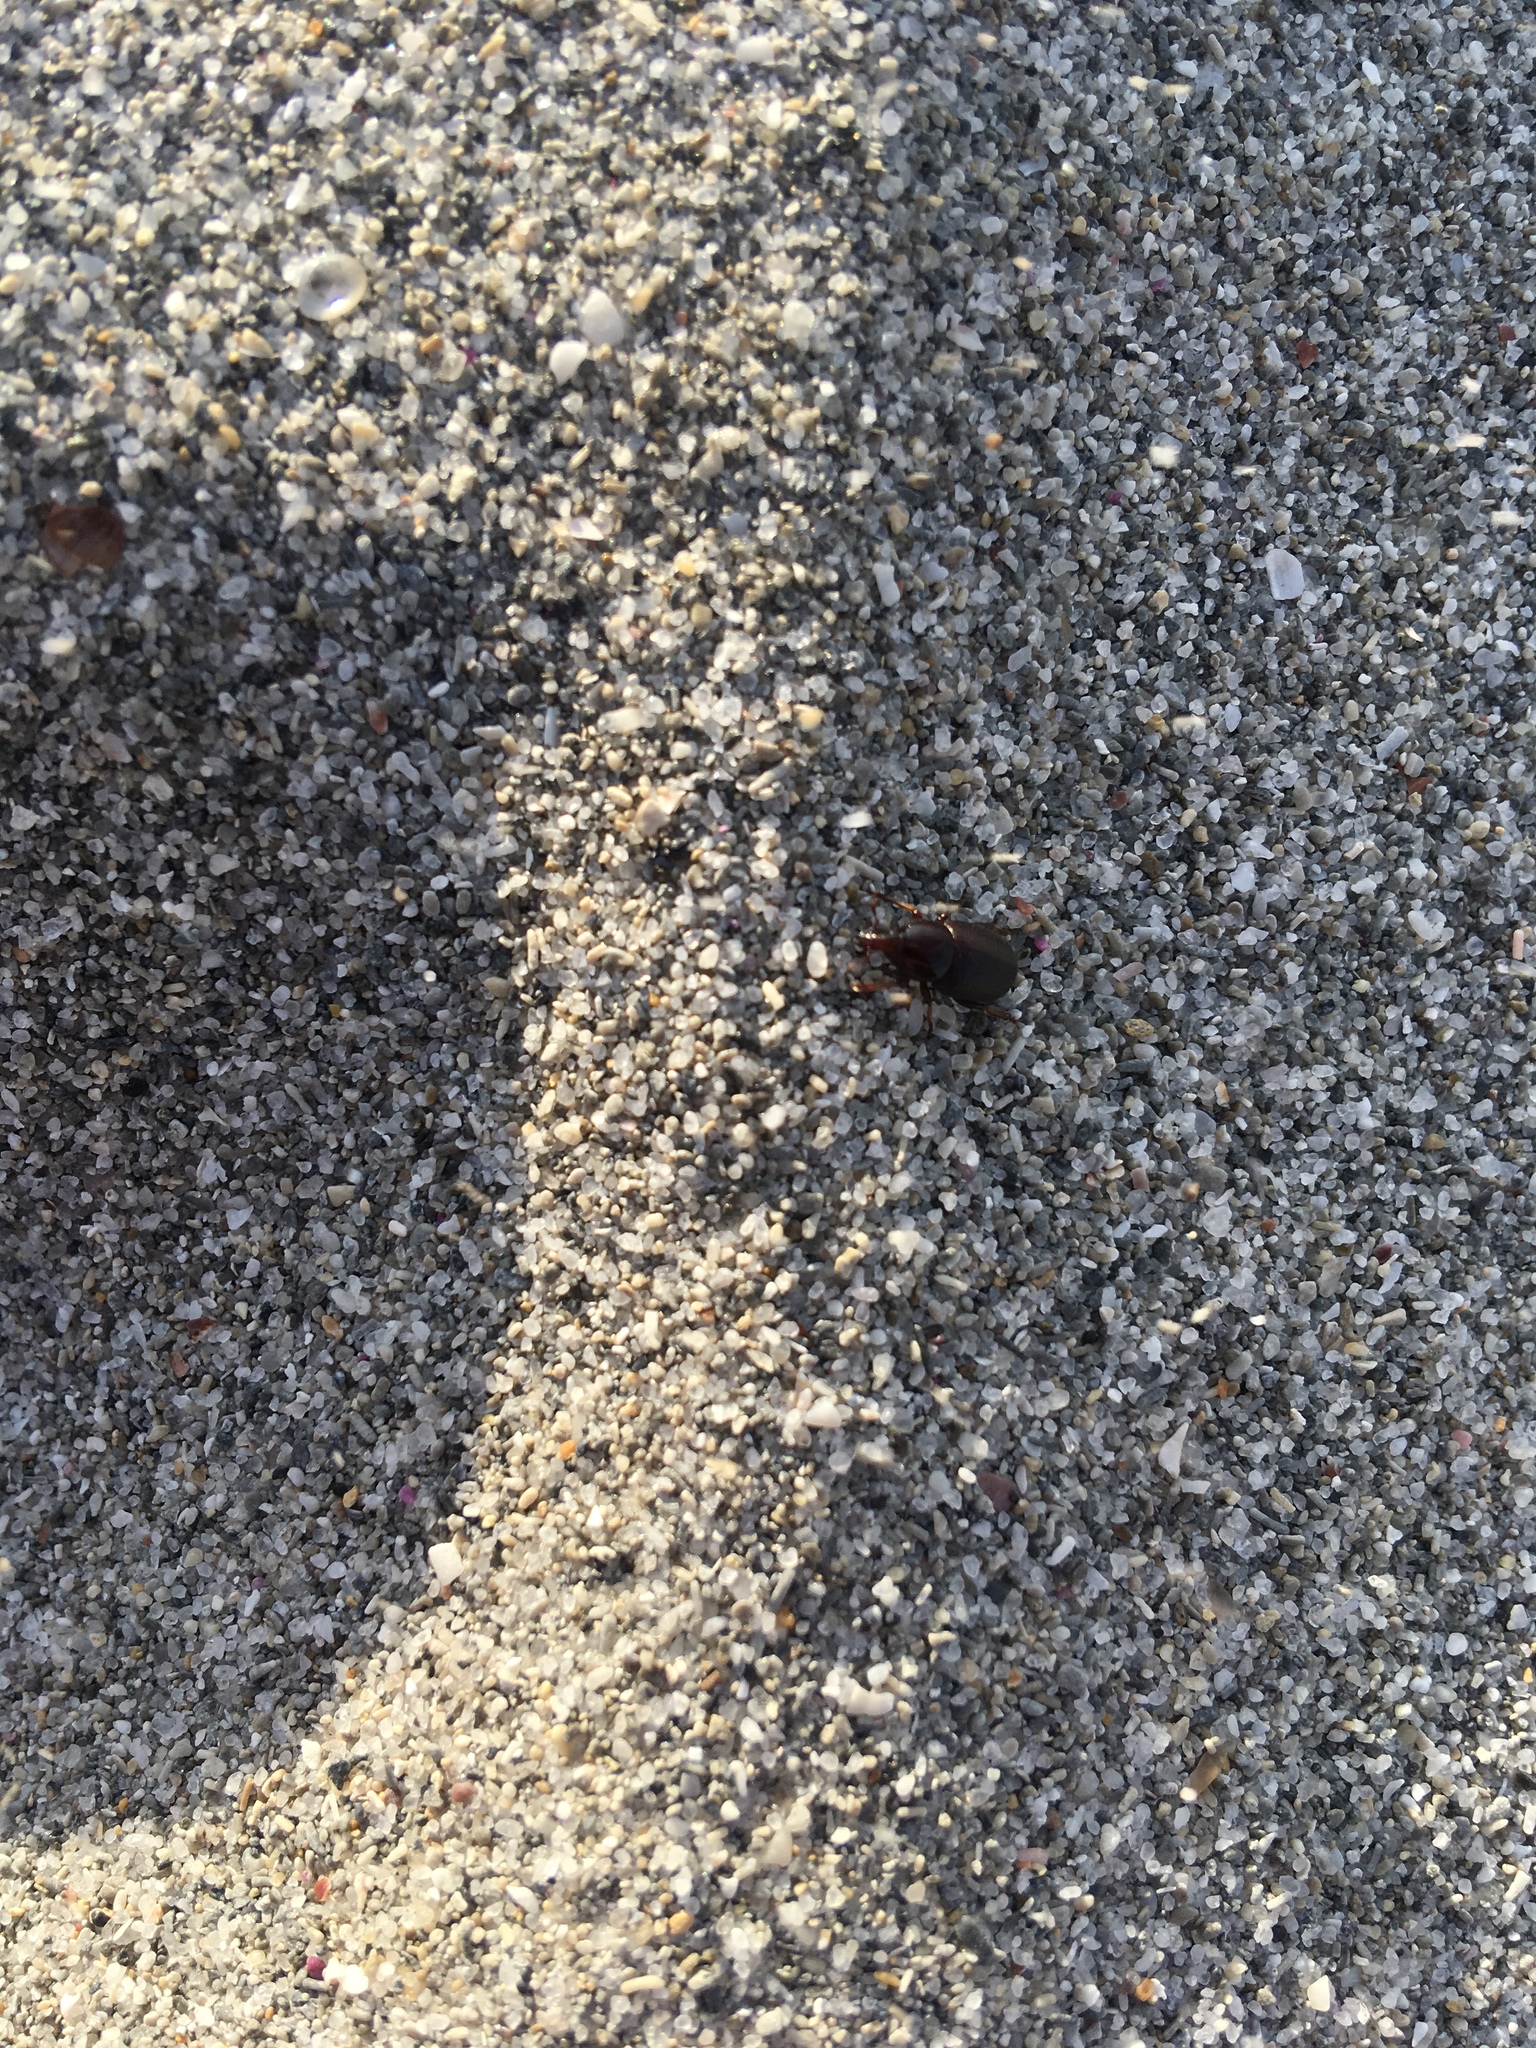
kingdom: Animalia
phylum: Arthropoda
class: Insecta
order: Coleoptera
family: Curculionidae
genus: Aphela
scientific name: Aphela helopoides
